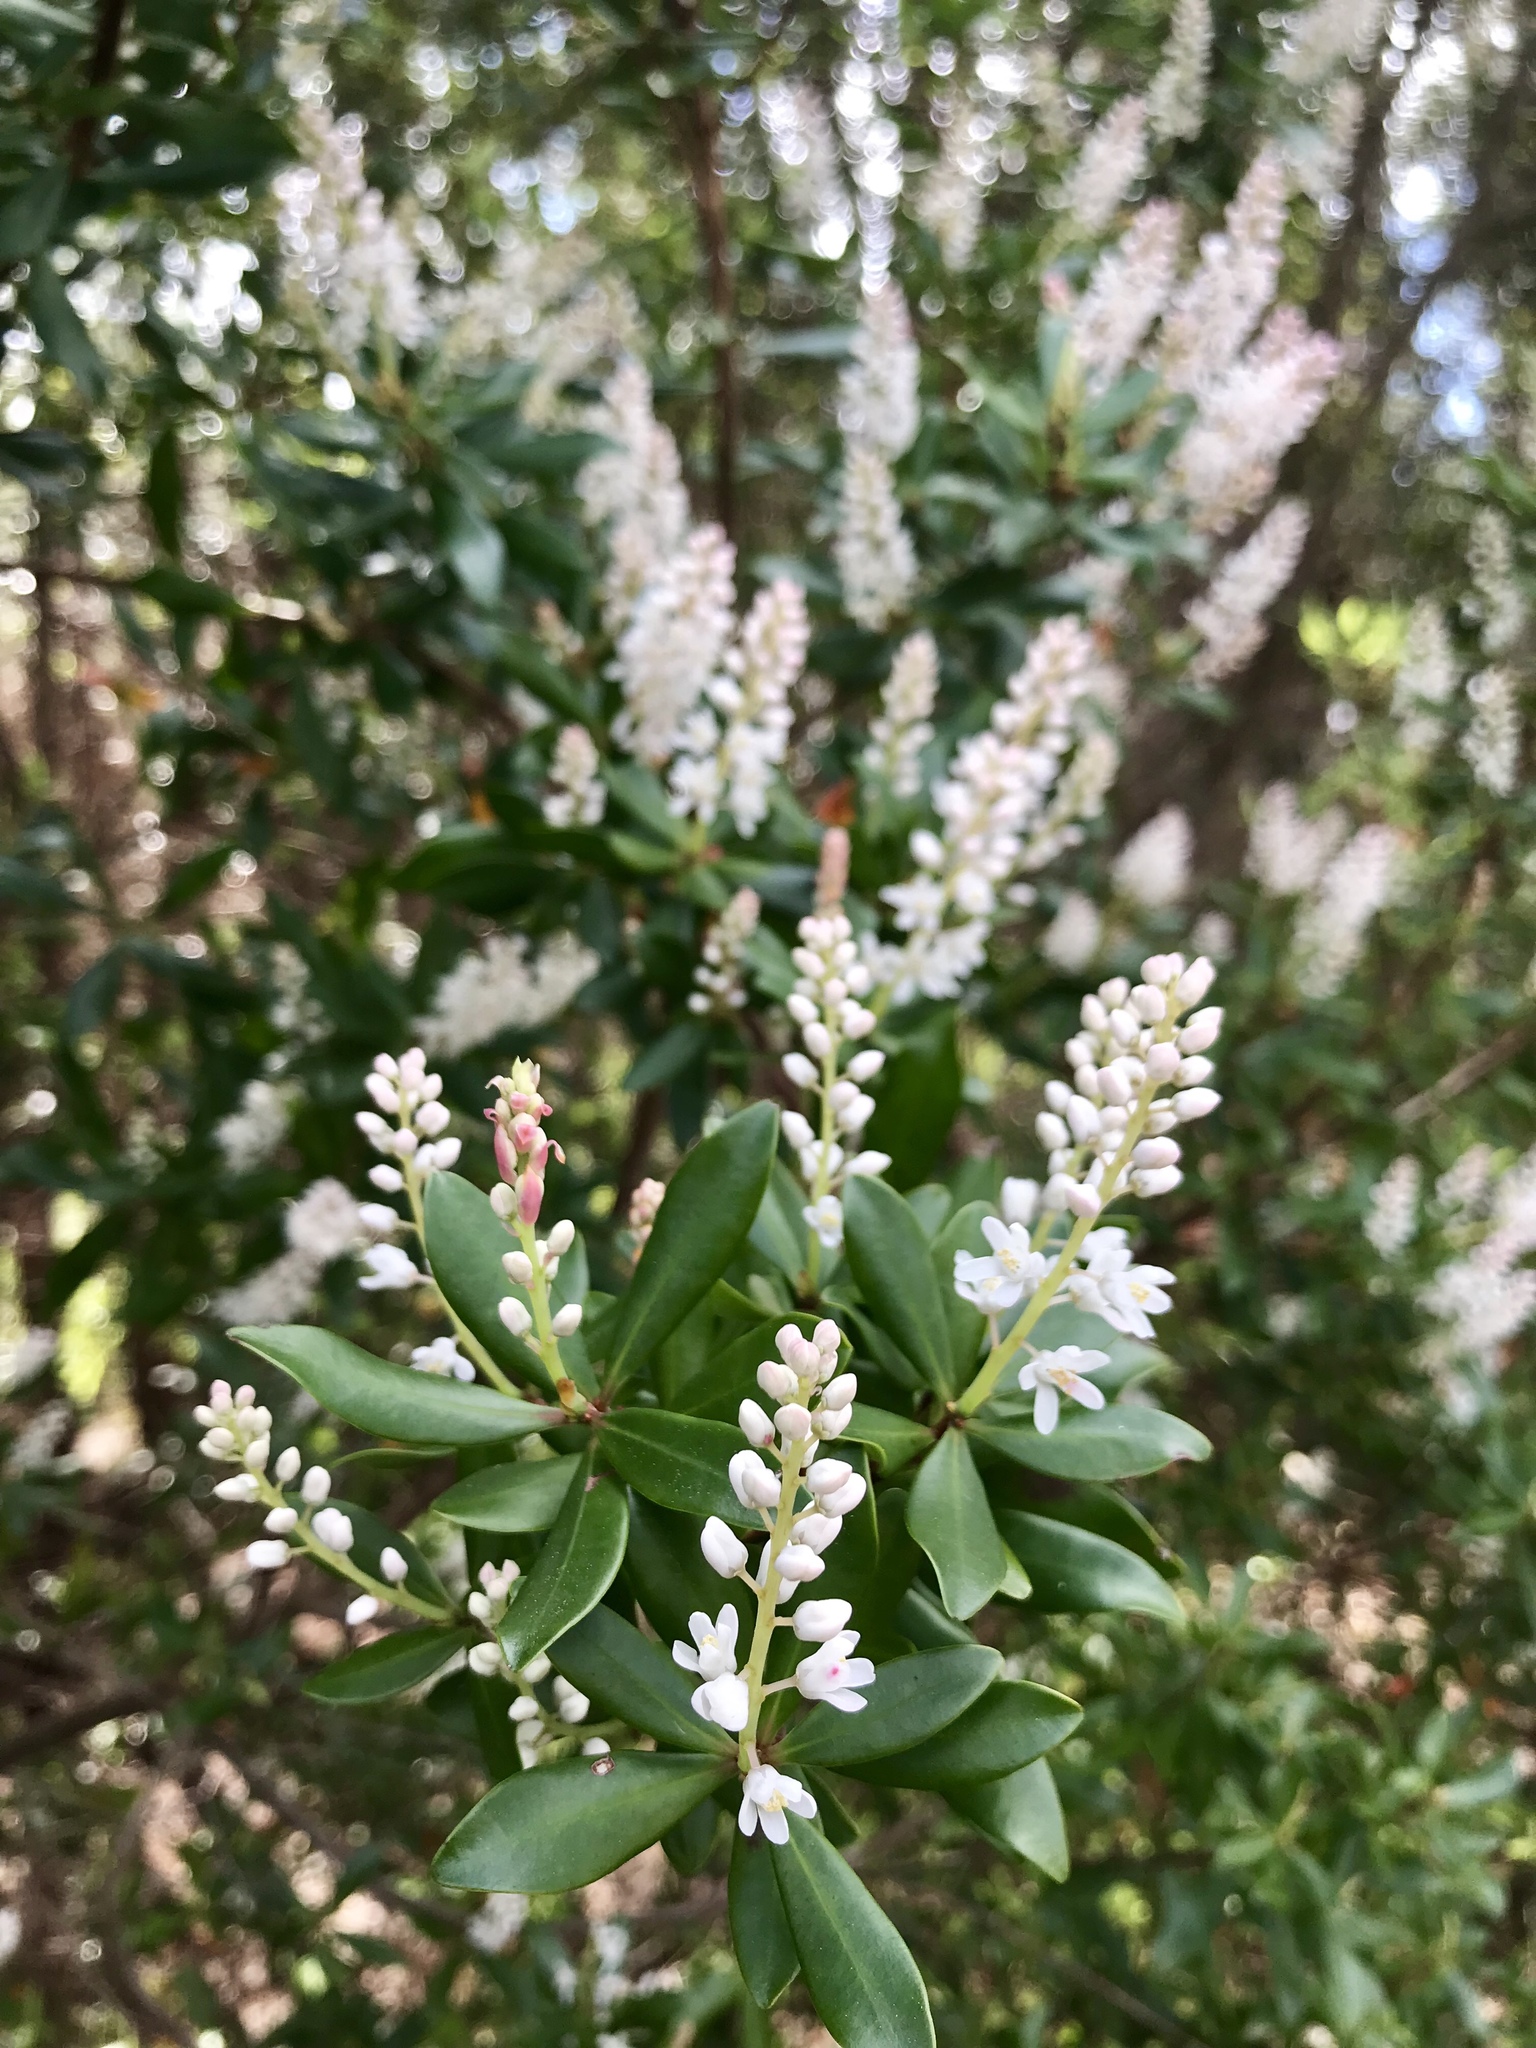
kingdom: Plantae
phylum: Tracheophyta
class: Magnoliopsida
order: Ericales
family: Cyrillaceae
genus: Cliftonia
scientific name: Cliftonia monophylla
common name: Titi
